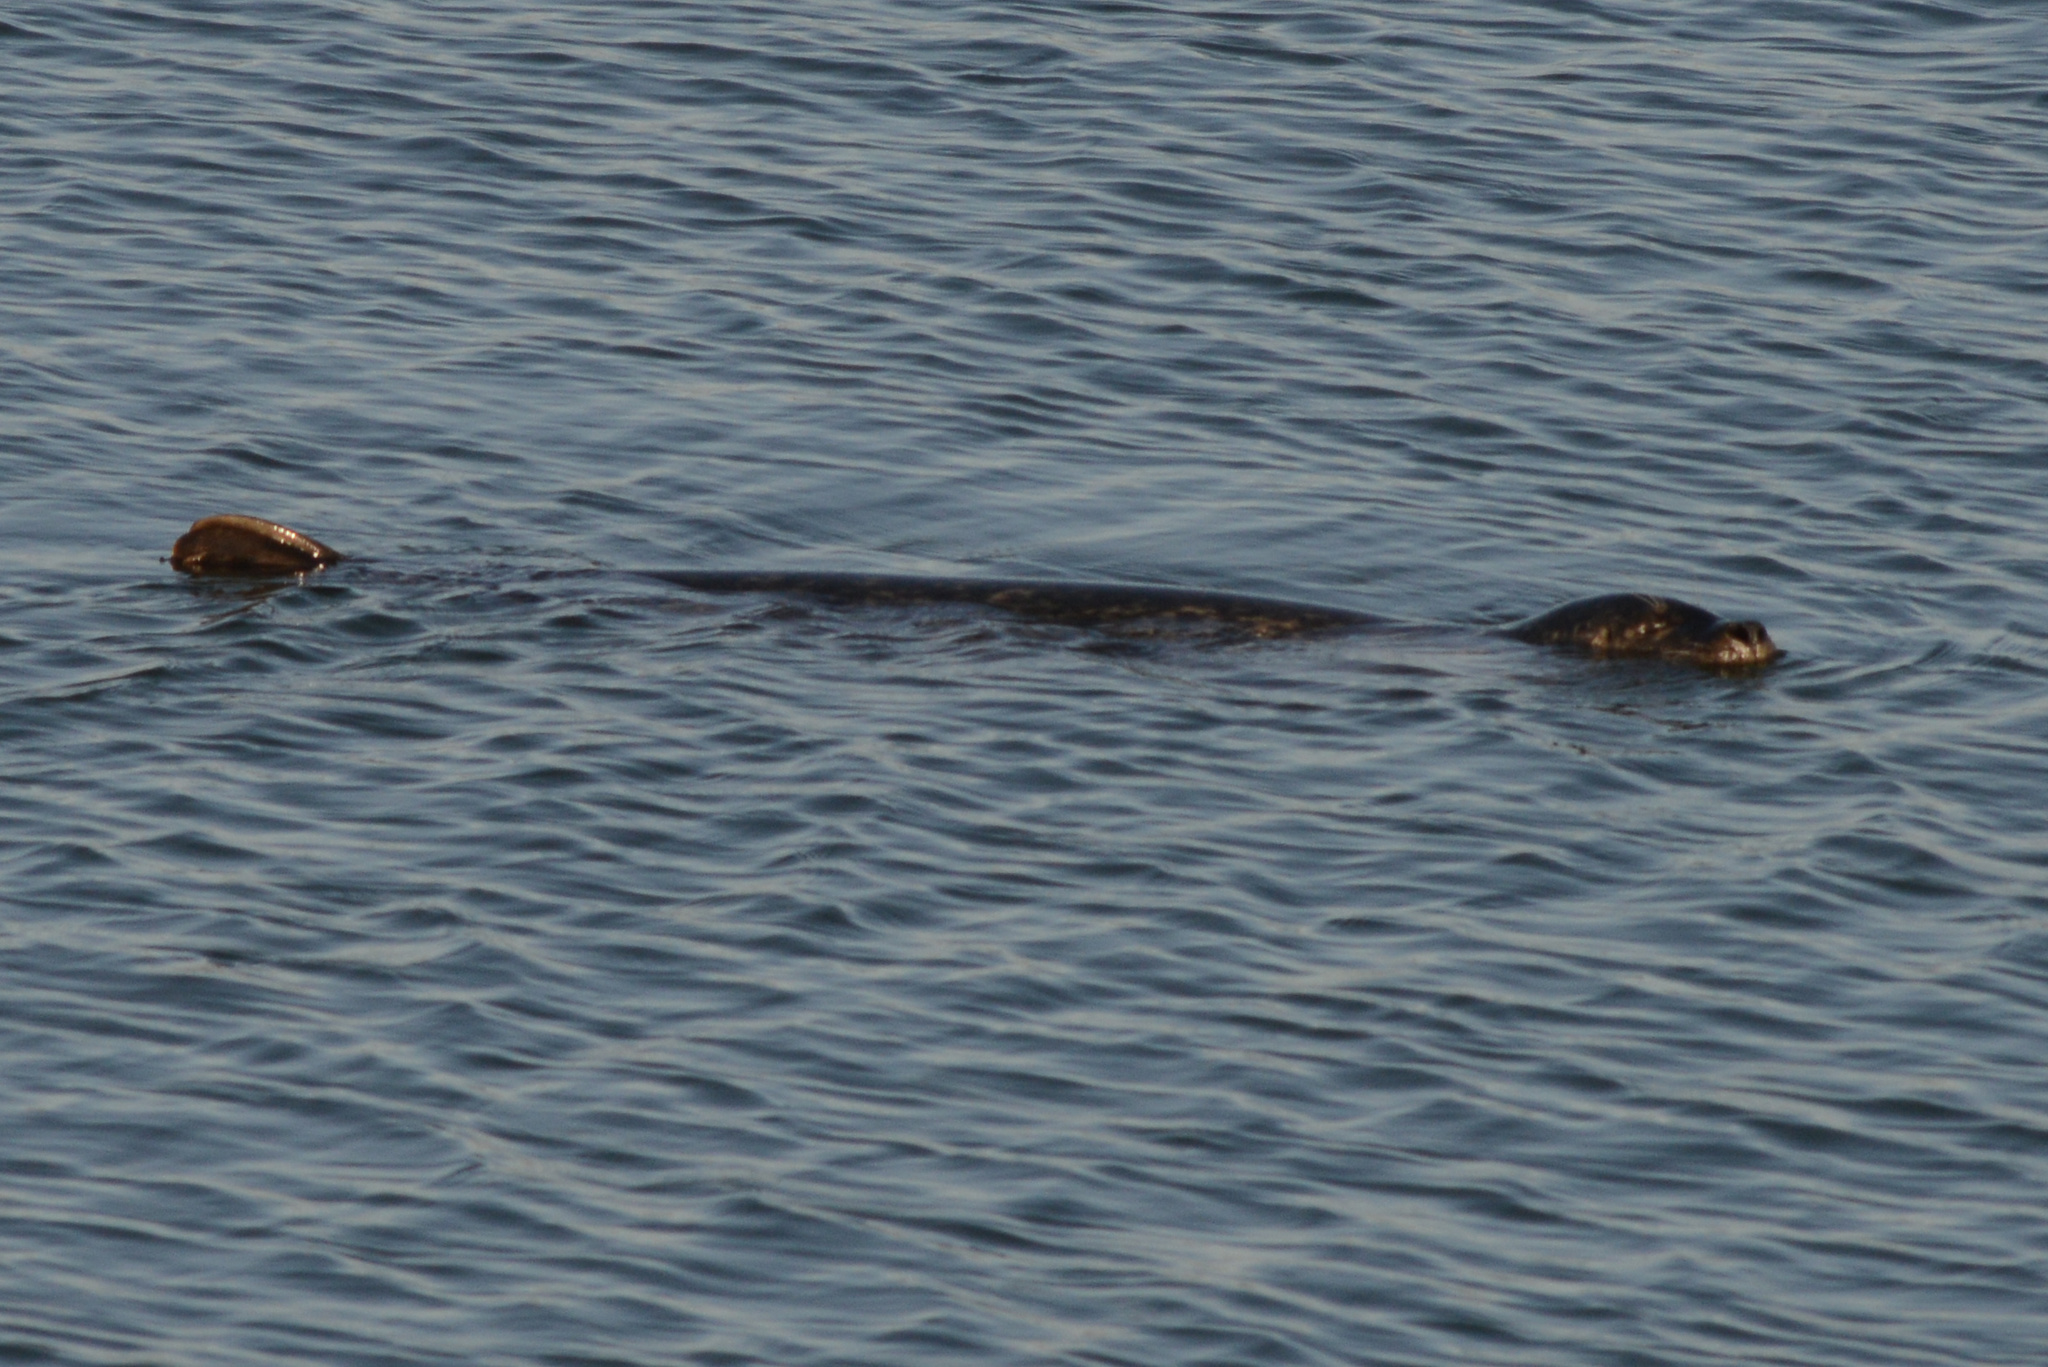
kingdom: Animalia
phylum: Chordata
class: Mammalia
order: Carnivora
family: Phocidae
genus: Phoca
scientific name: Phoca vitulina
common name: Harbor seal
